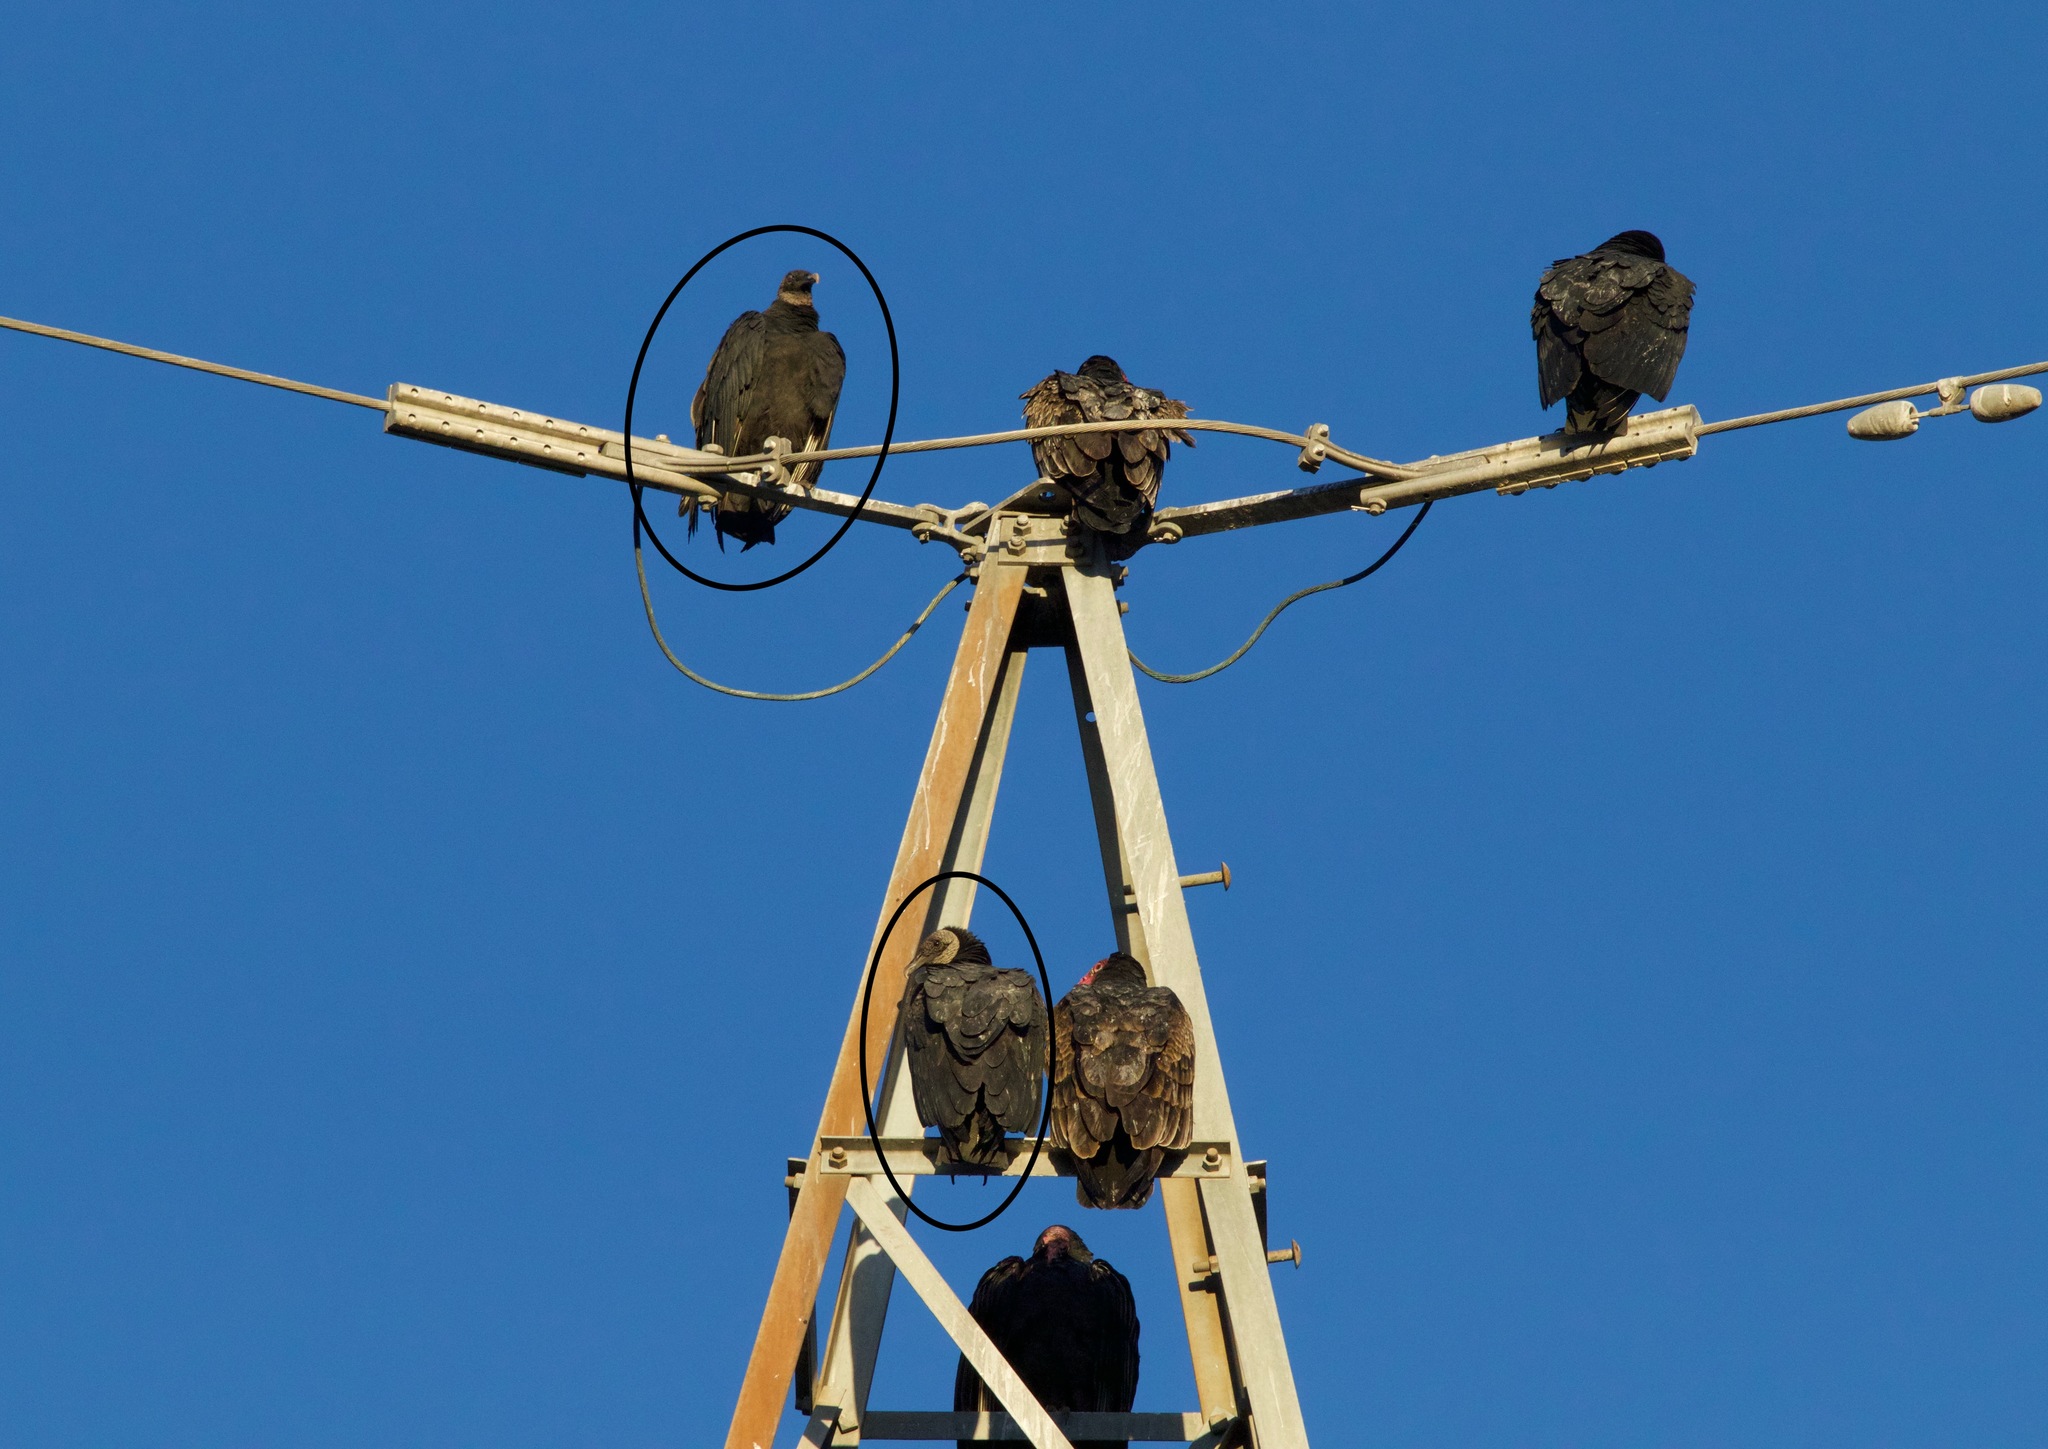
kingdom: Animalia
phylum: Chordata
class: Aves
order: Accipitriformes
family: Cathartidae
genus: Coragyps
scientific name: Coragyps atratus
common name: Black vulture
